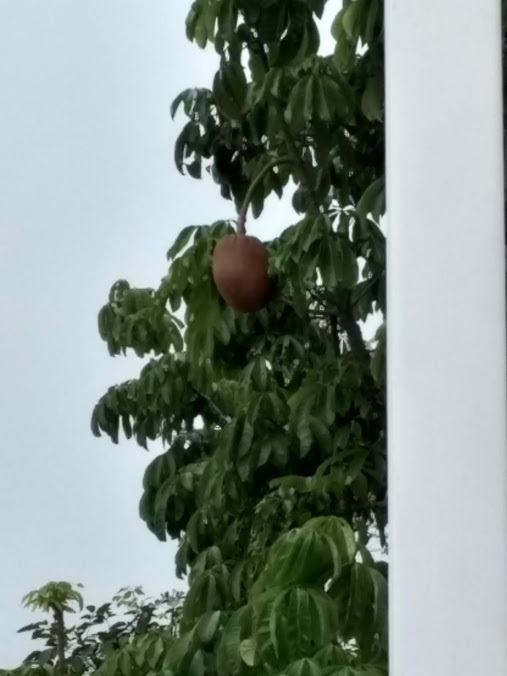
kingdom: Plantae
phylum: Tracheophyta
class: Magnoliopsida
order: Malvales
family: Malvaceae
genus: Pachira
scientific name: Pachira aquatica
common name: Provision-tree
